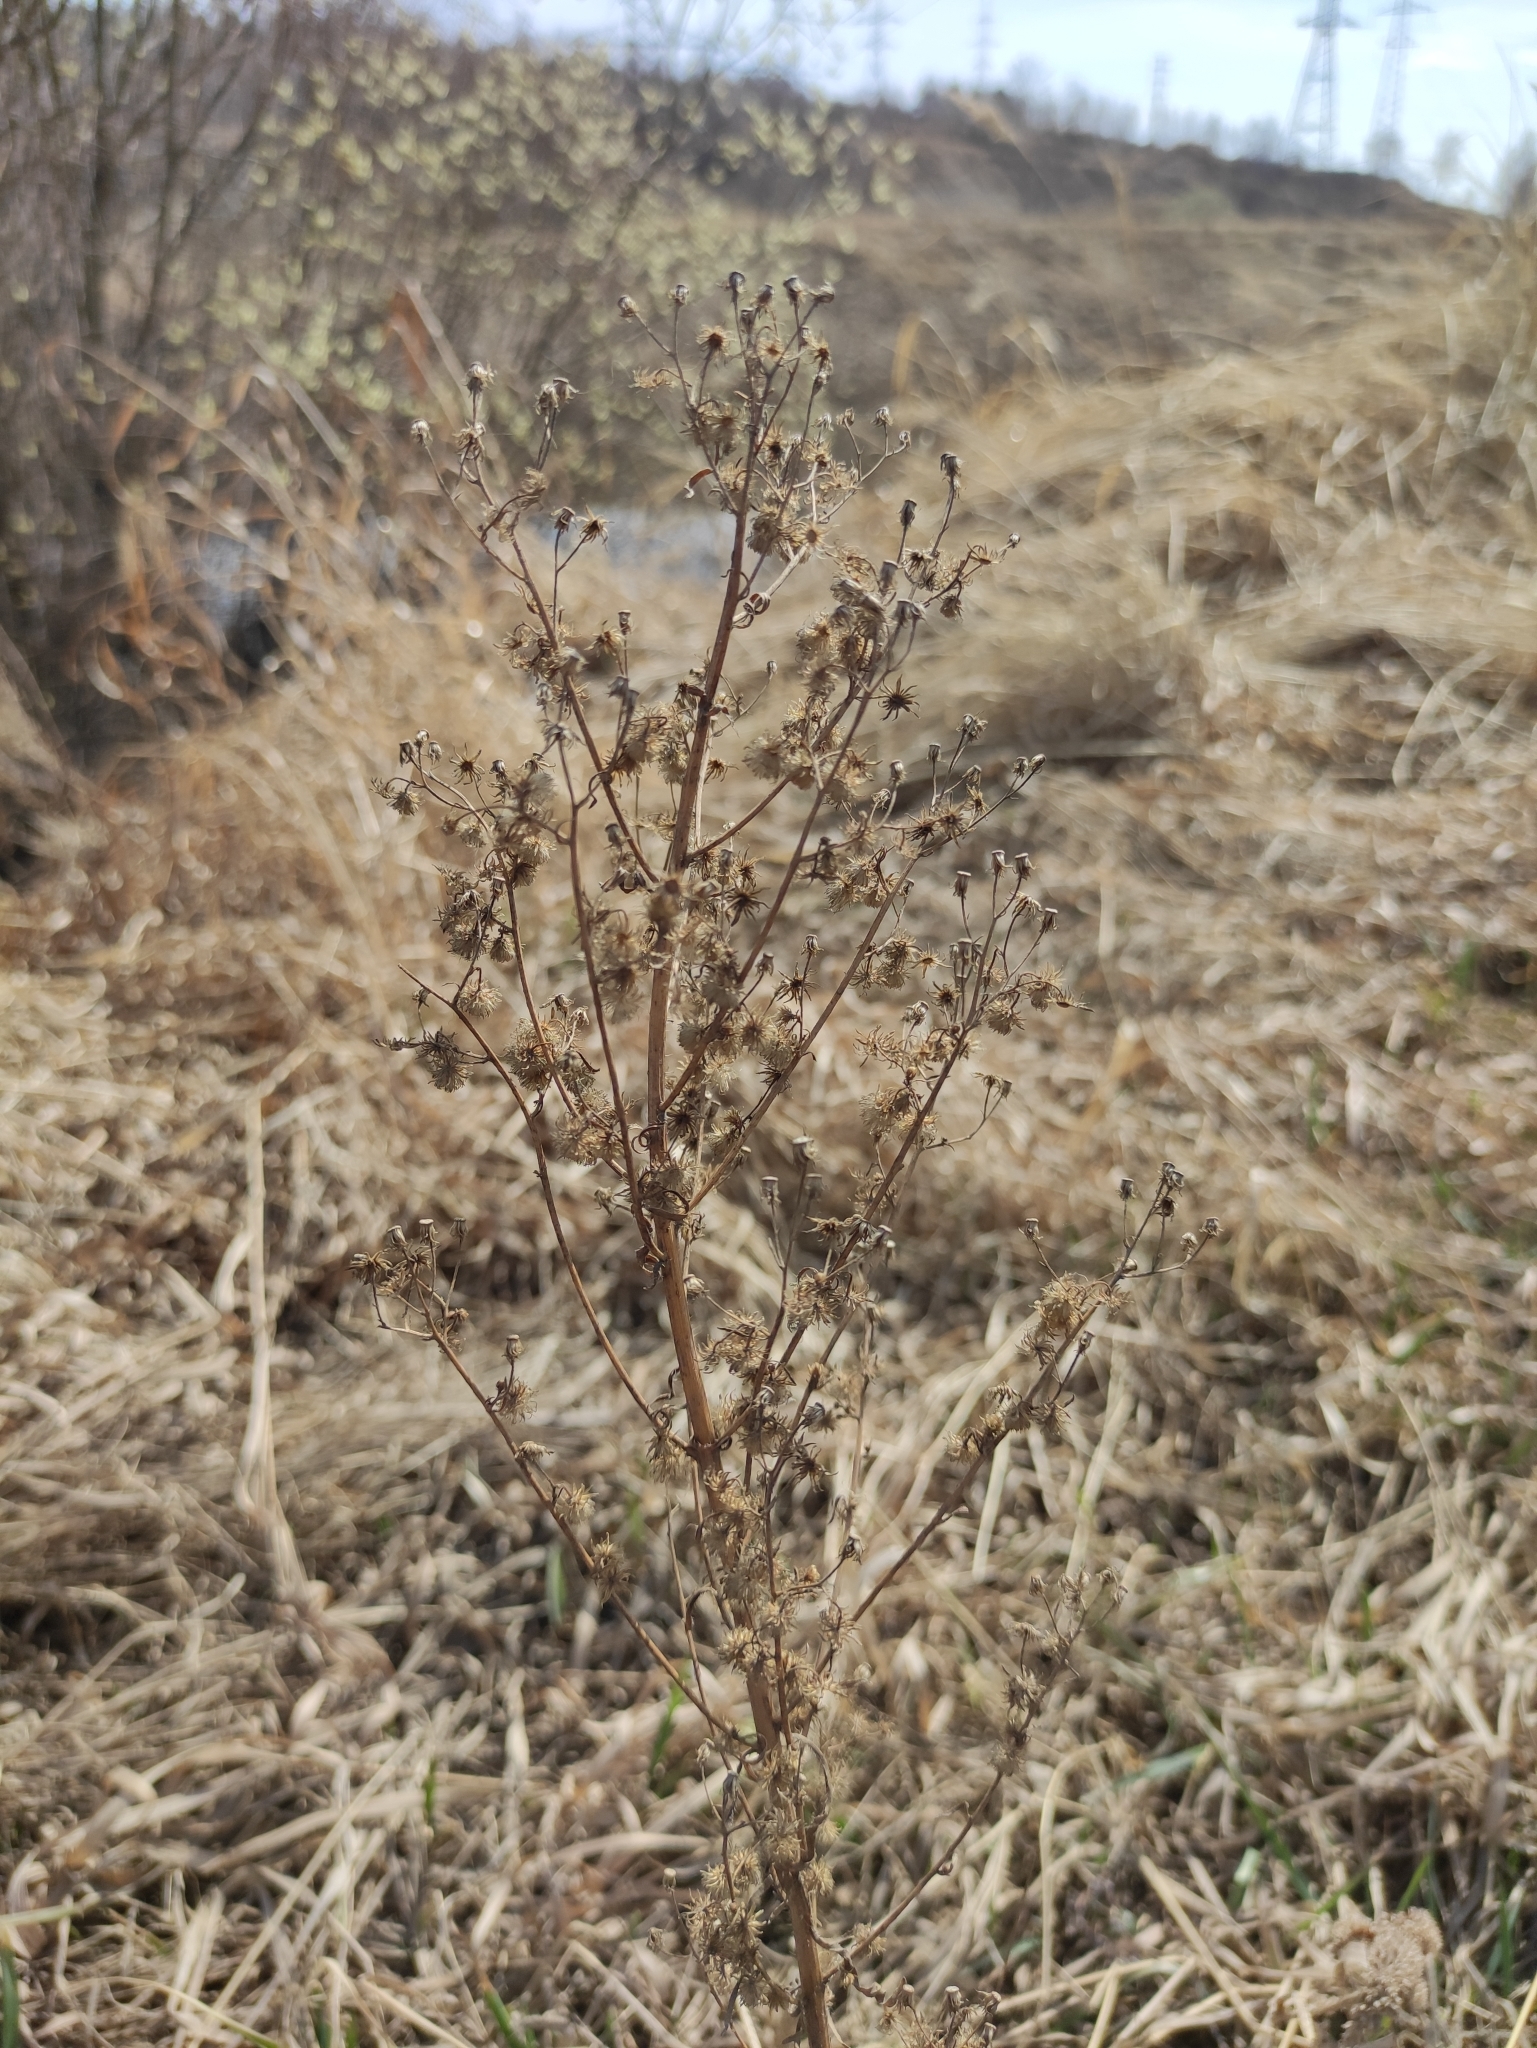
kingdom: Plantae
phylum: Tracheophyta
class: Magnoliopsida
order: Asterales
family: Asteraceae
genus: Erigeron
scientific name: Erigeron canadensis
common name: Canadian fleabane
